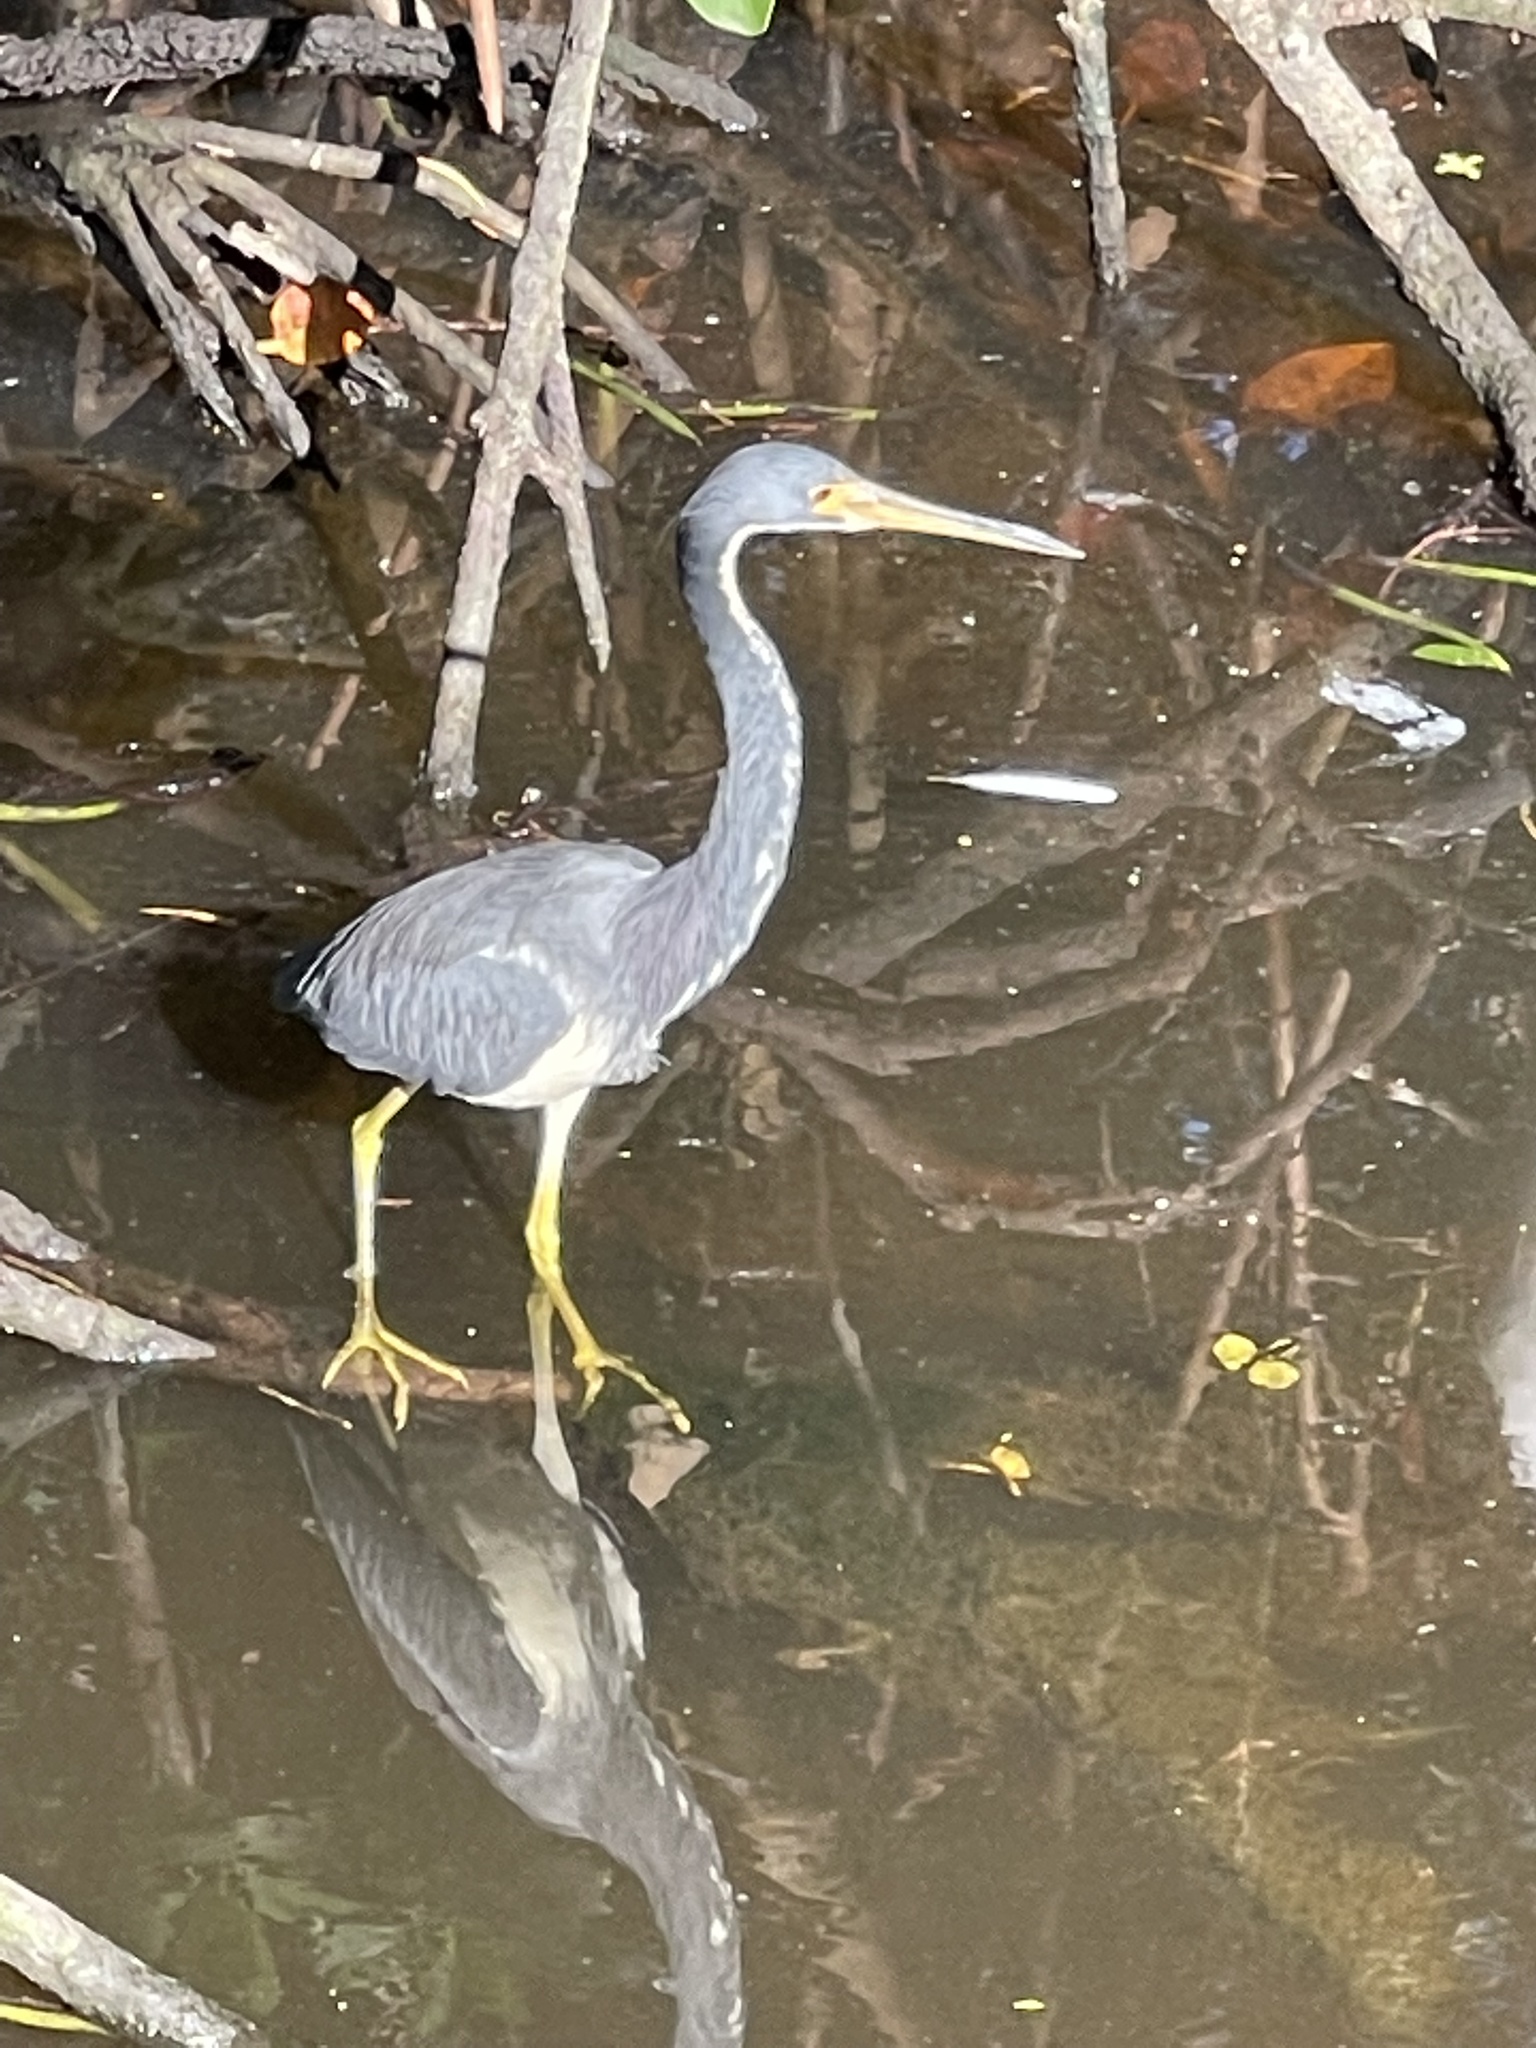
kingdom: Animalia
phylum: Chordata
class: Aves
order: Pelecaniformes
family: Ardeidae
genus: Egretta
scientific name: Egretta tricolor
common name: Tricolored heron
